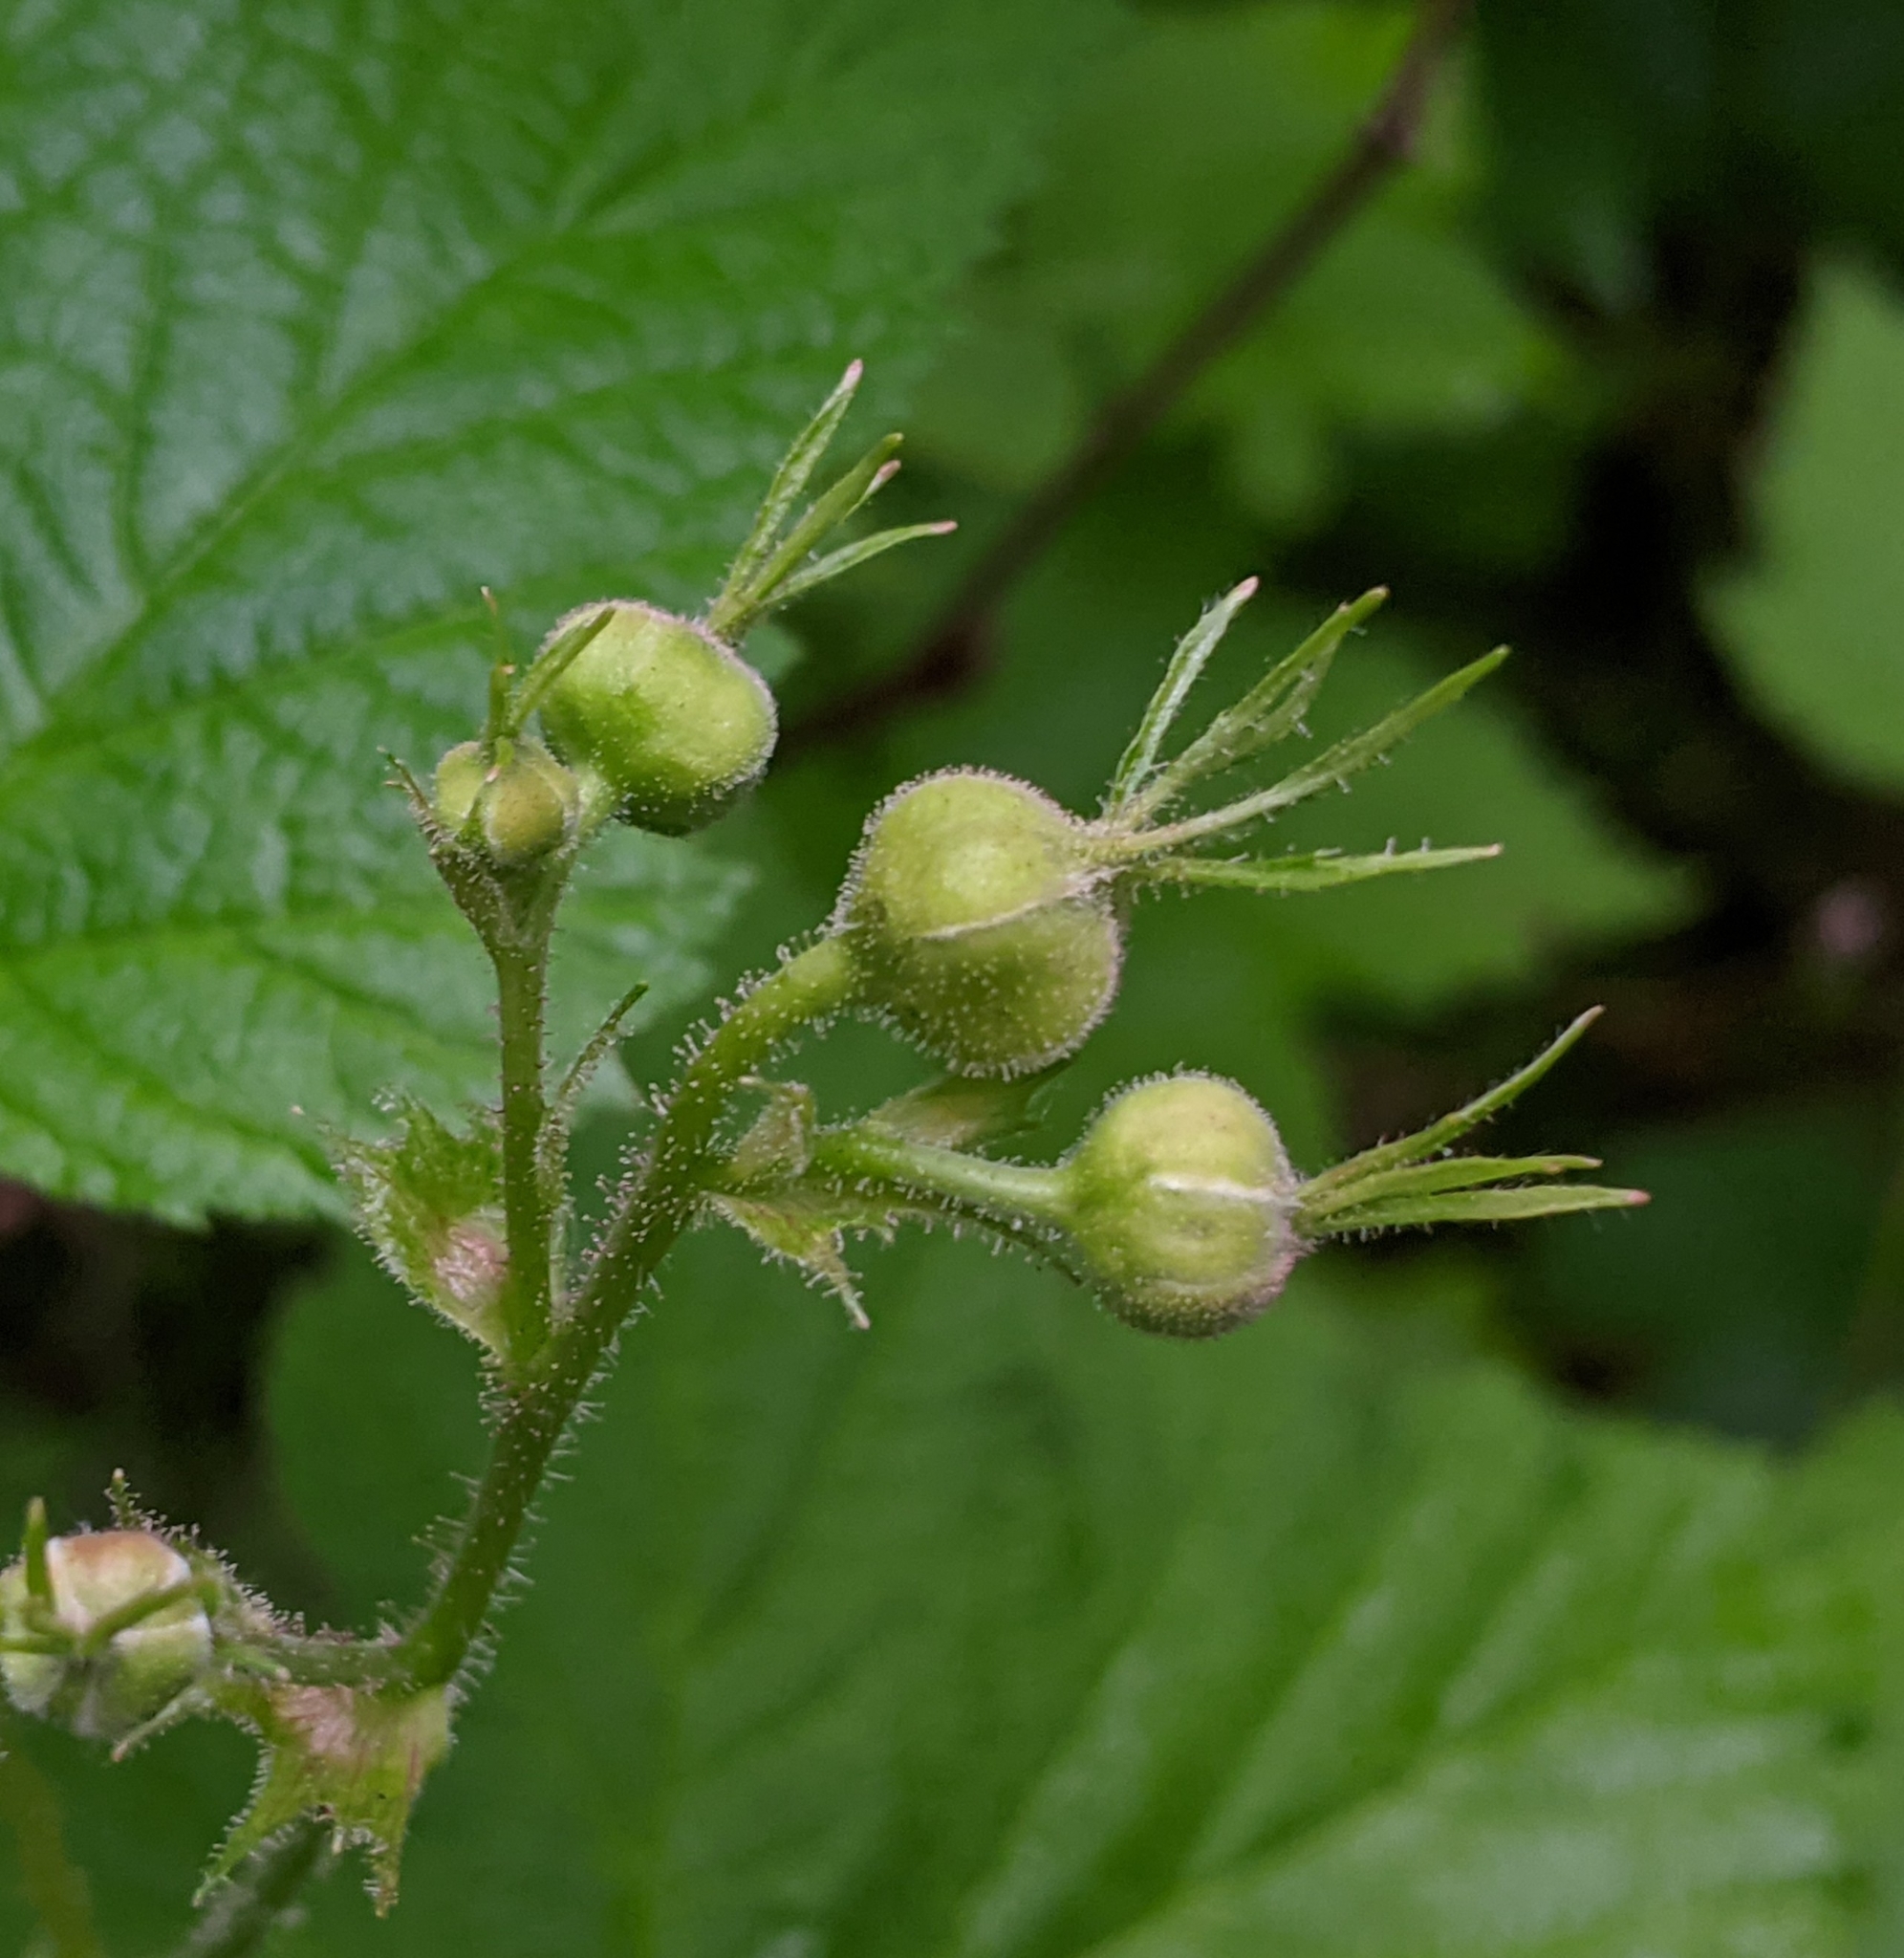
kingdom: Plantae
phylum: Tracheophyta
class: Magnoliopsida
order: Rosales
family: Rosaceae
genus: Rubus
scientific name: Rubus parviflorus
